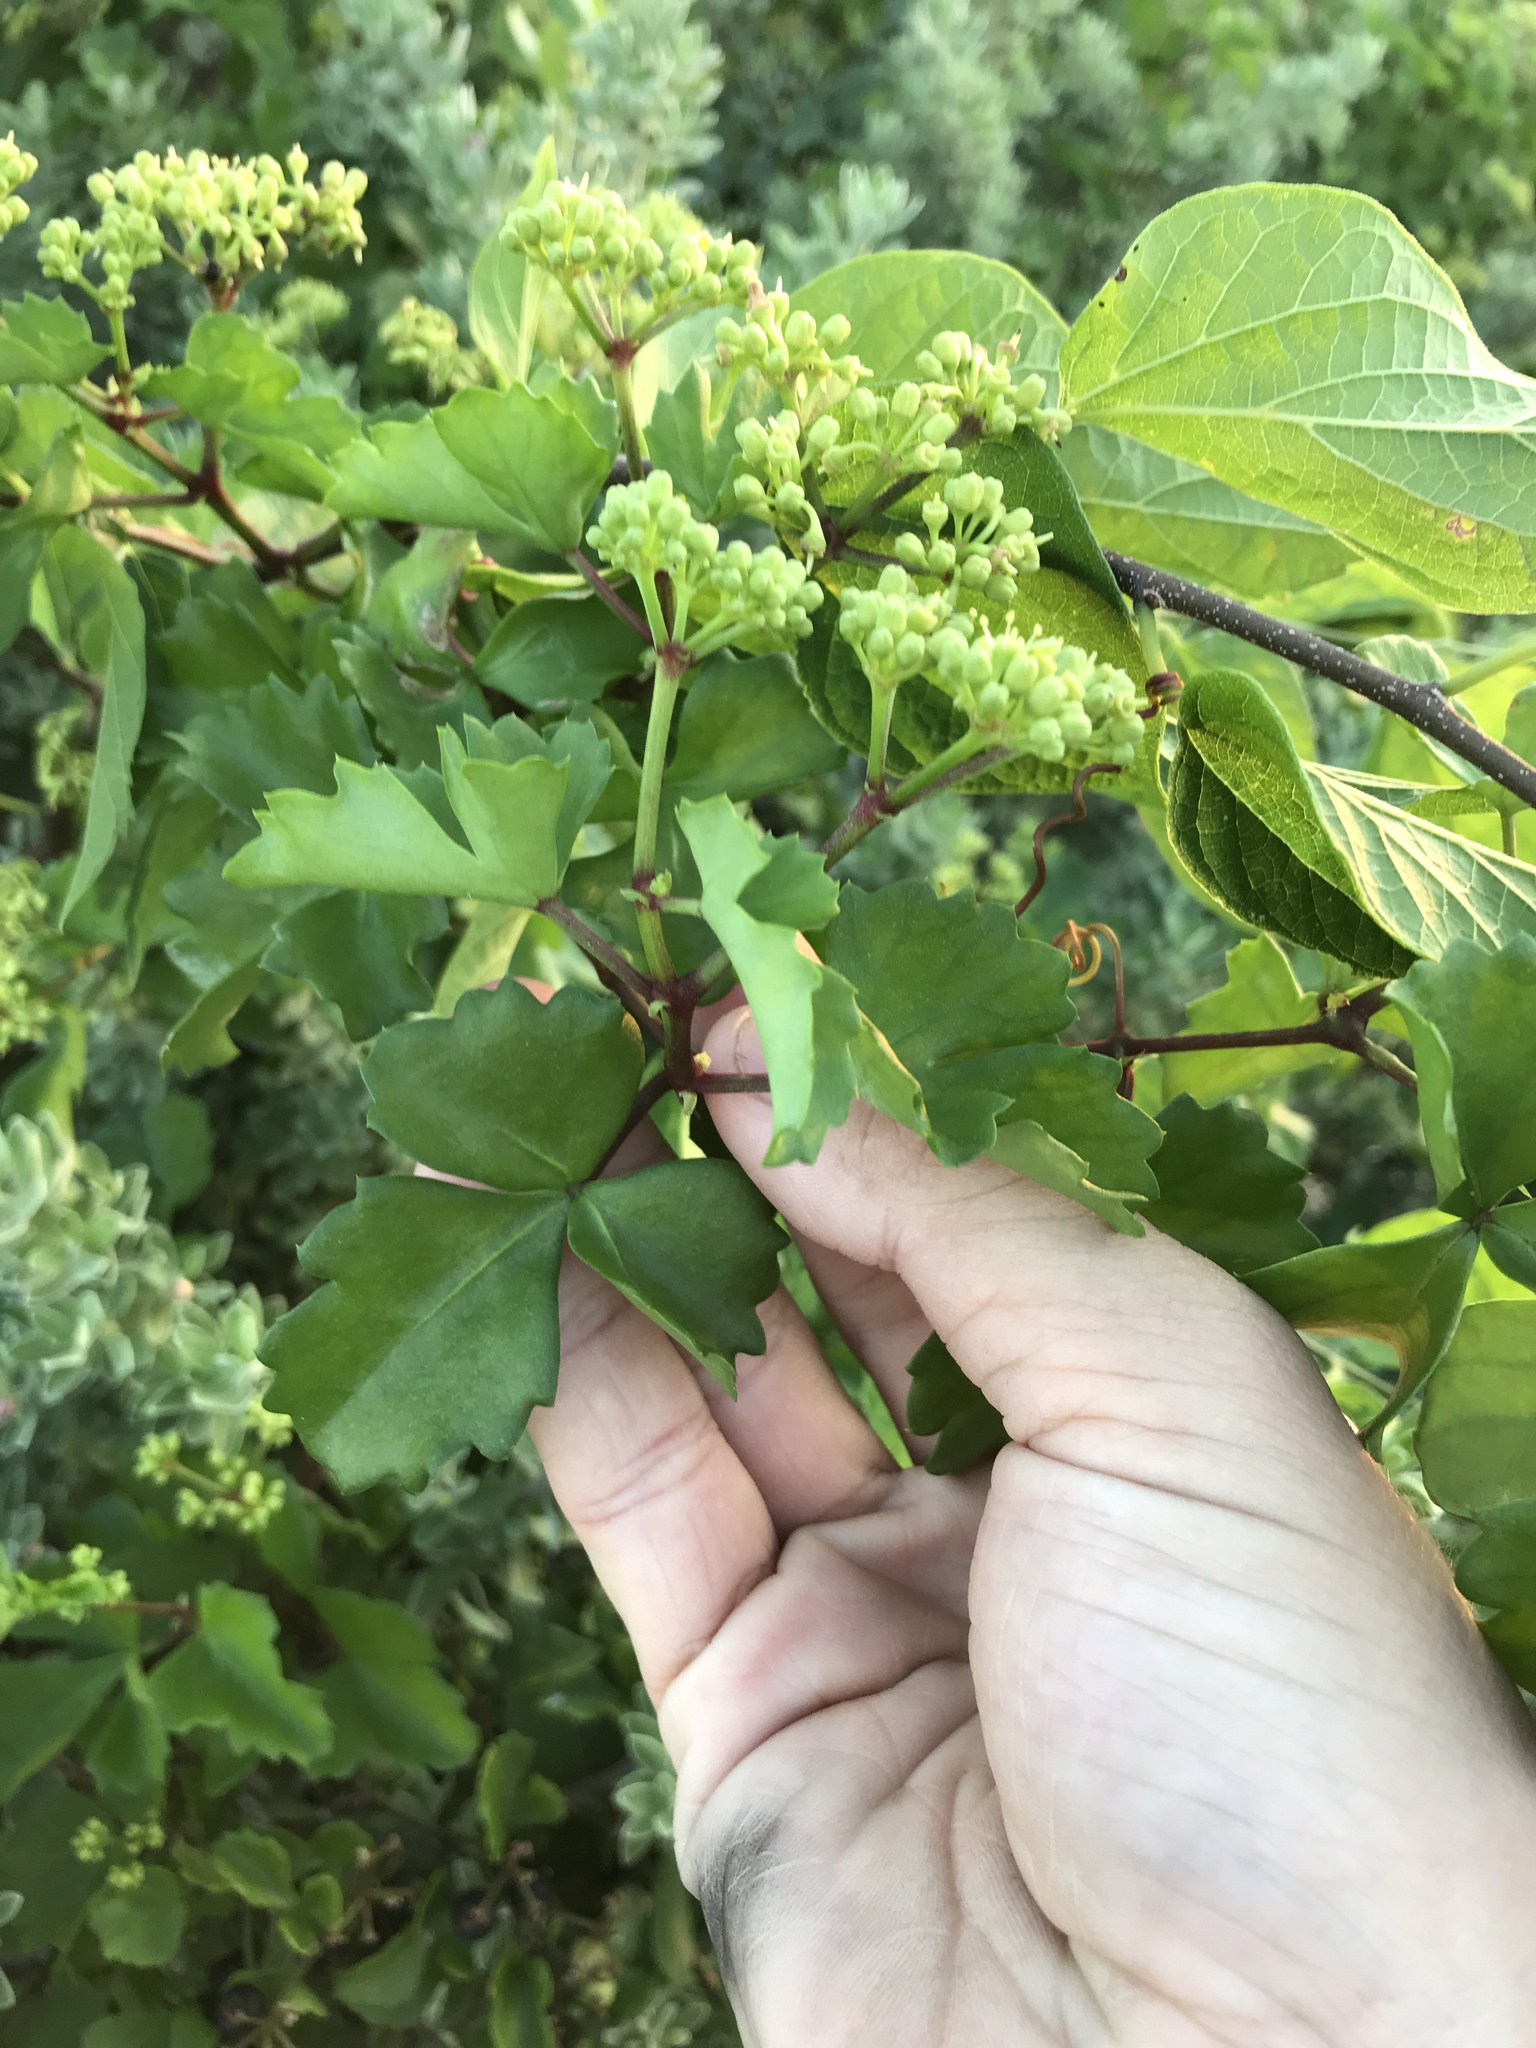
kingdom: Plantae
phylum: Tracheophyta
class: Magnoliopsida
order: Vitales
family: Vitaceae
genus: Cissus
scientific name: Cissus trifoliata
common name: Vine-sorrel
